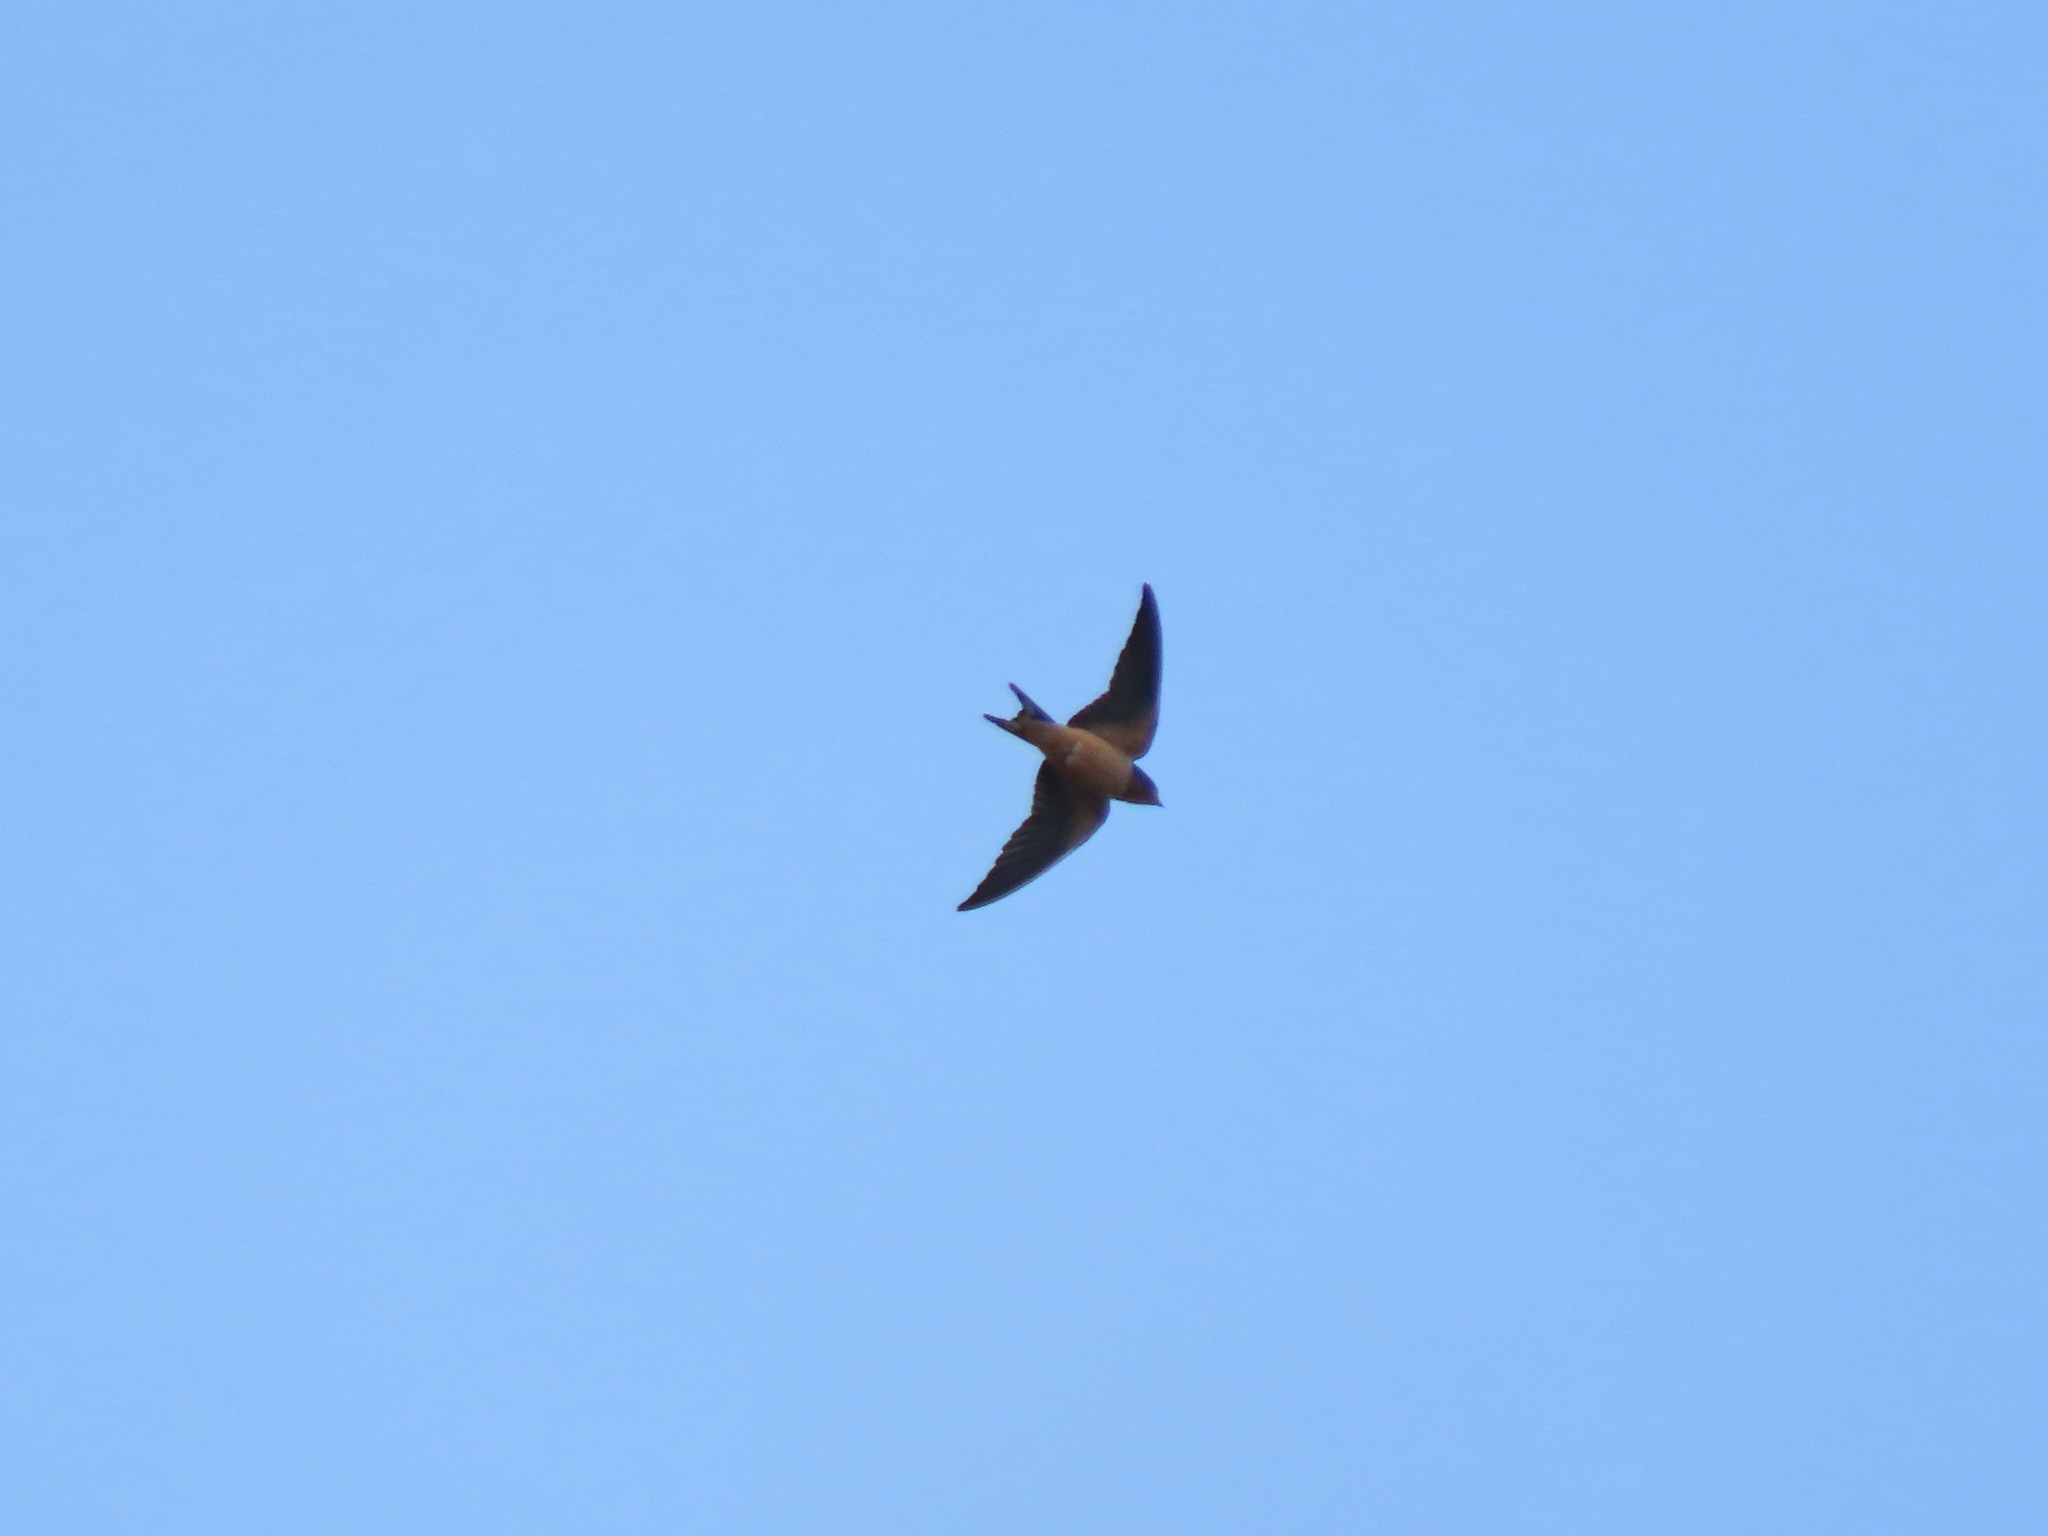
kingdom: Animalia
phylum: Chordata
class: Aves
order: Passeriformes
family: Hirundinidae
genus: Hirundo
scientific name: Hirundo rustica
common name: Barn swallow
